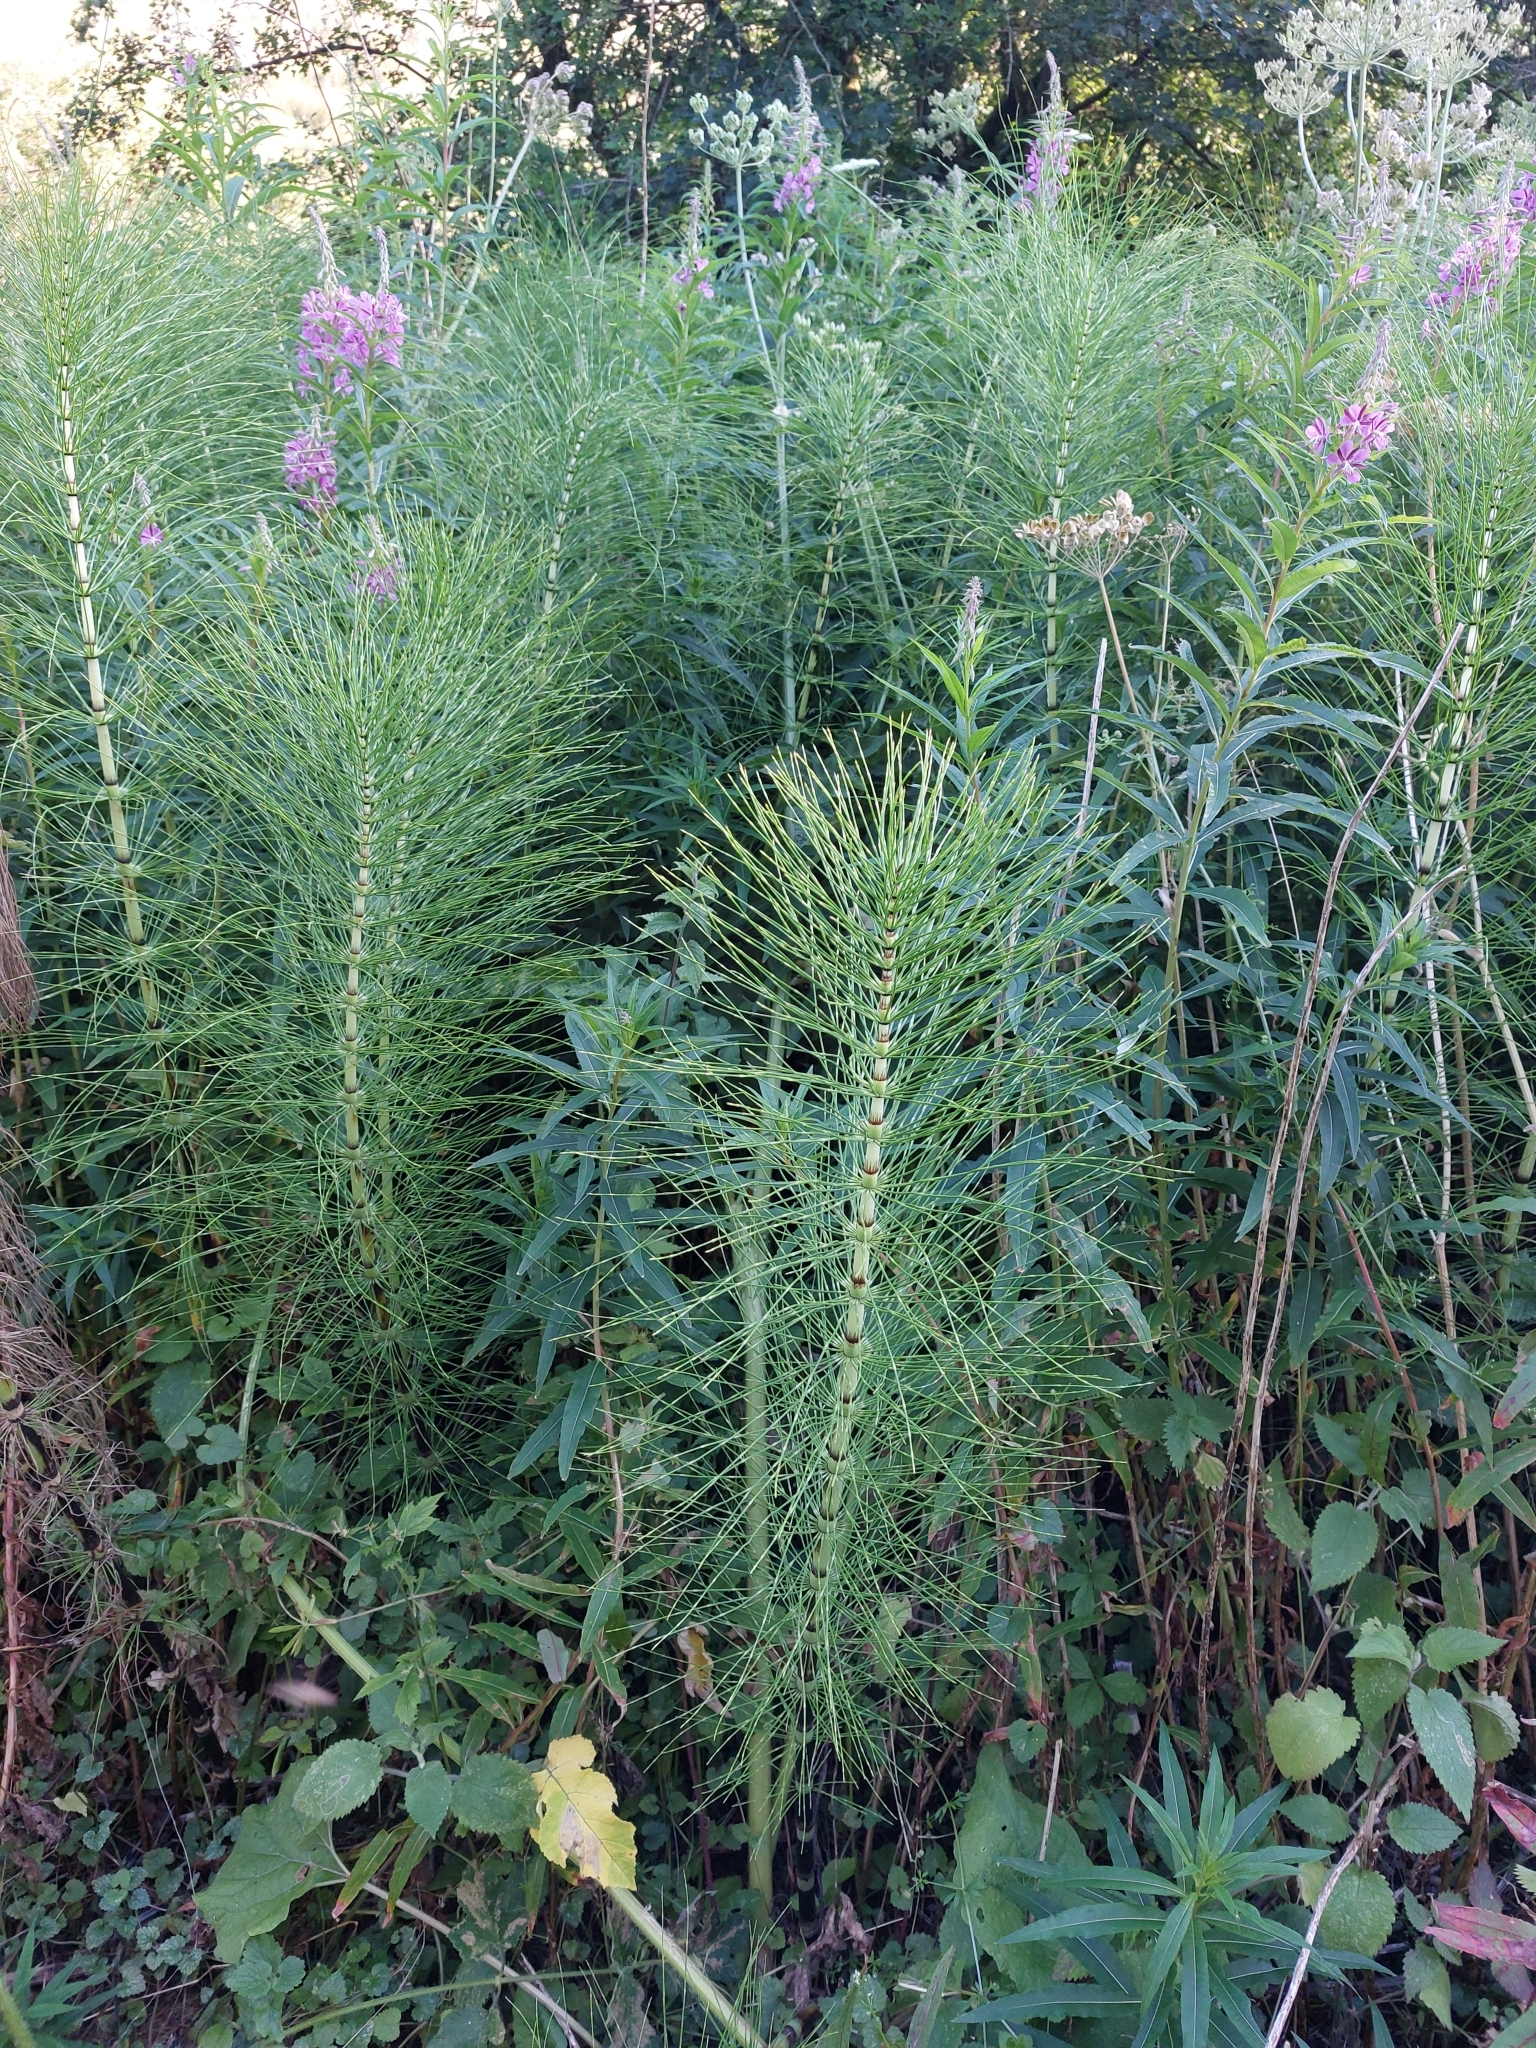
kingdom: Plantae
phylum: Tracheophyta
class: Polypodiopsida
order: Equisetales
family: Equisetaceae
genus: Equisetum
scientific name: Equisetum telmateia
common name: Great horsetail
